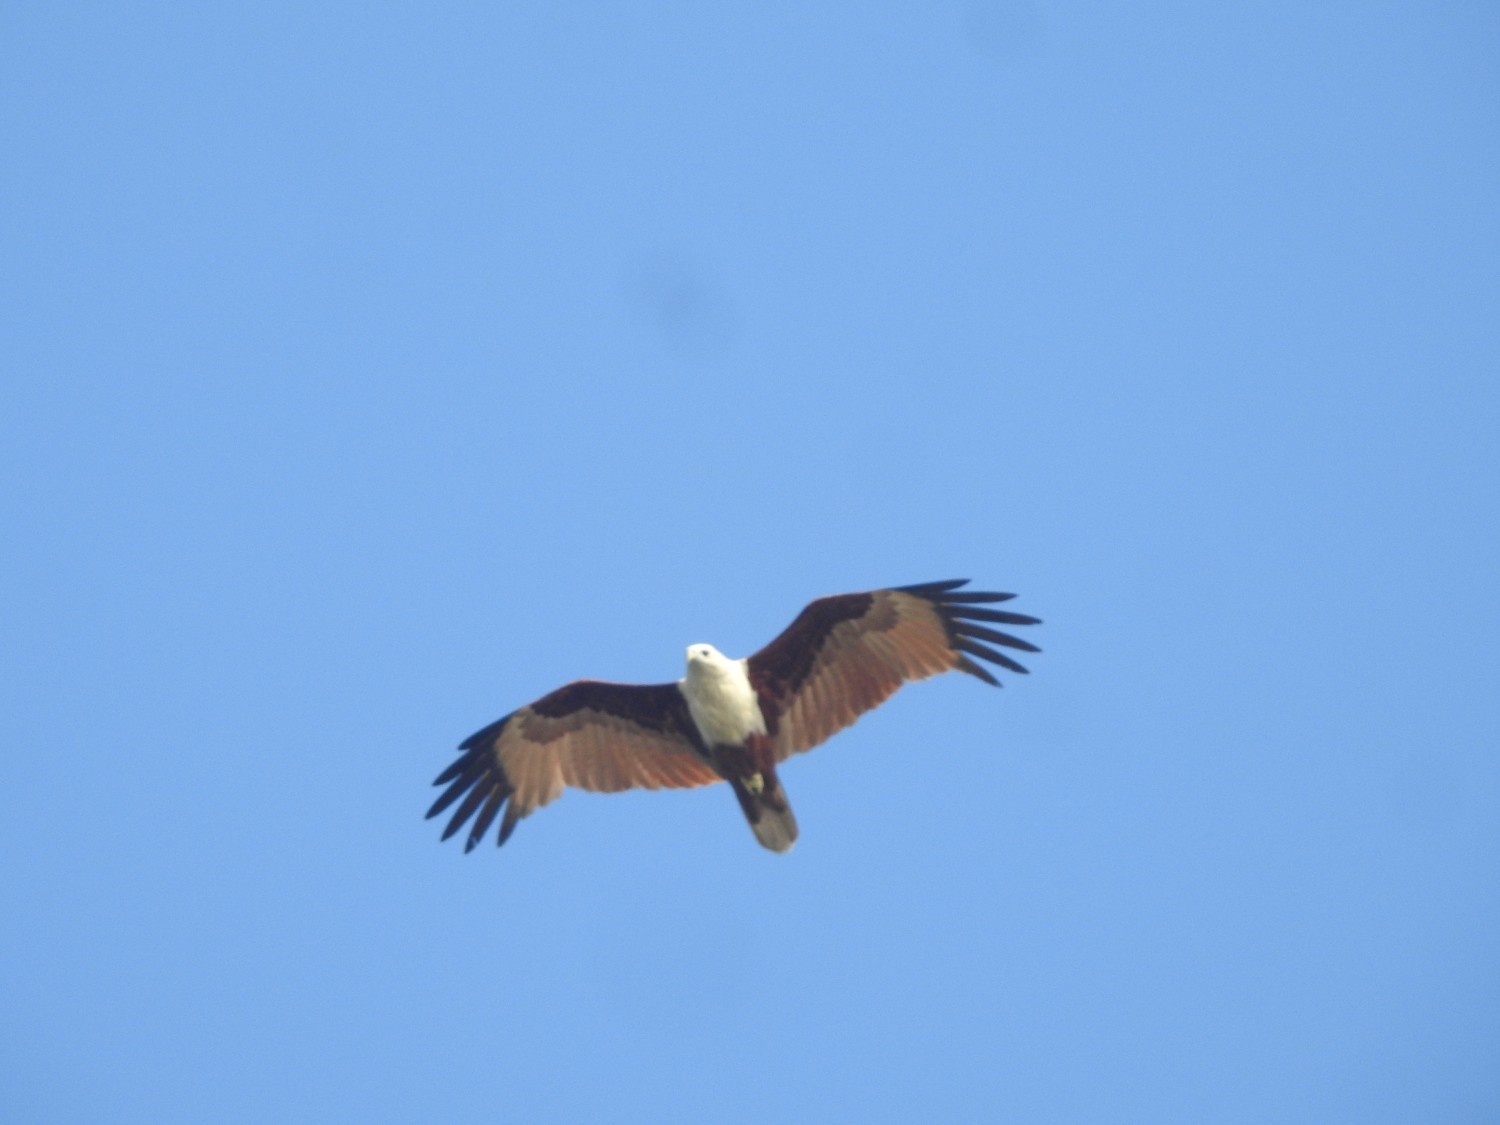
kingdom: Animalia
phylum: Chordata
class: Aves
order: Accipitriformes
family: Accipitridae
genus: Haliastur
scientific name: Haliastur indus
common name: Brahminy kite
